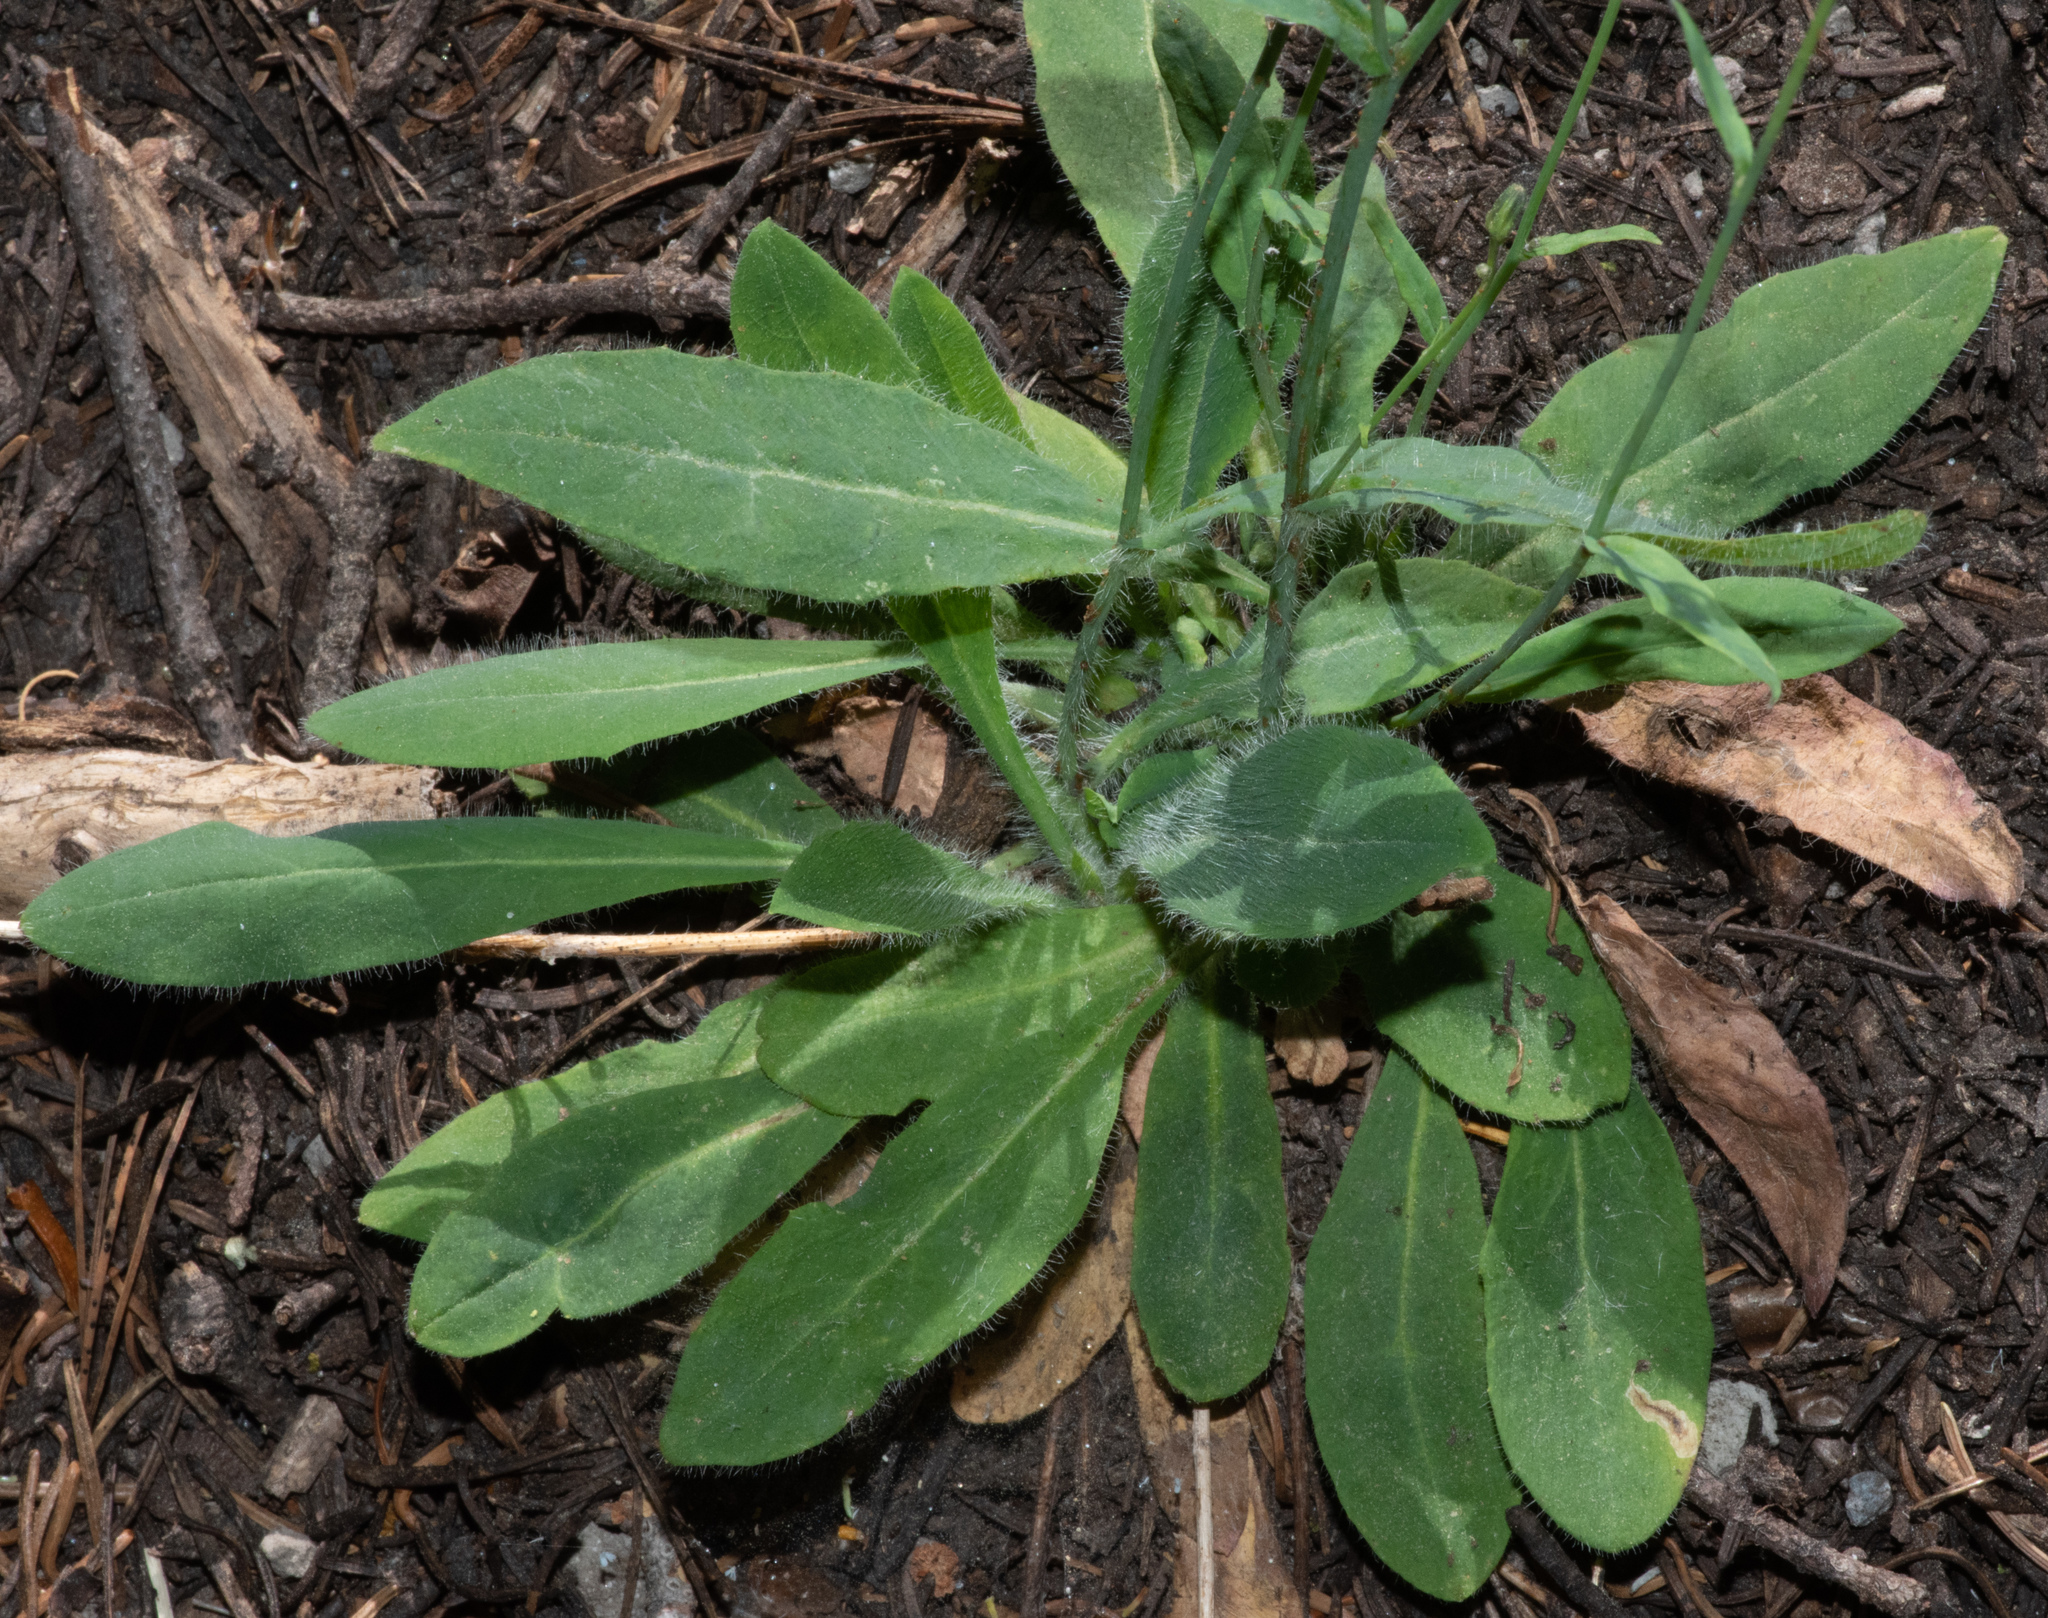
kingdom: Plantae
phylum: Tracheophyta
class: Magnoliopsida
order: Asterales
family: Asteraceae
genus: Hieracium
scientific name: Hieracium albiflorum
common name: White hawkweed
